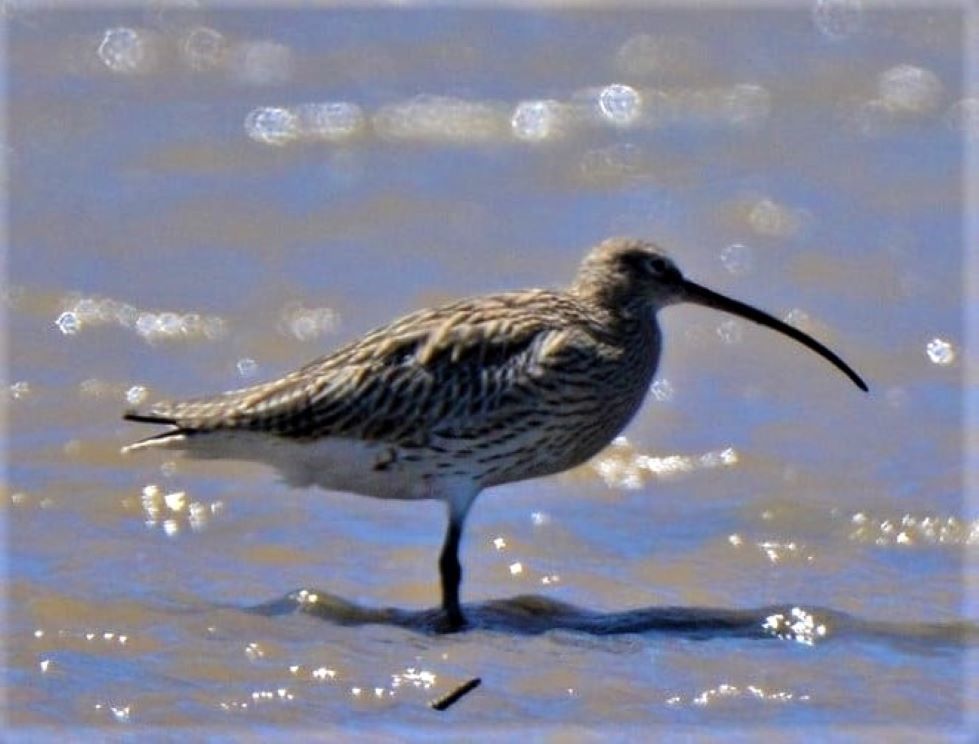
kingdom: Animalia
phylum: Chordata
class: Aves
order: Charadriiformes
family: Scolopacidae
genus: Numenius
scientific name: Numenius arquata
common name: Eurasian curlew
